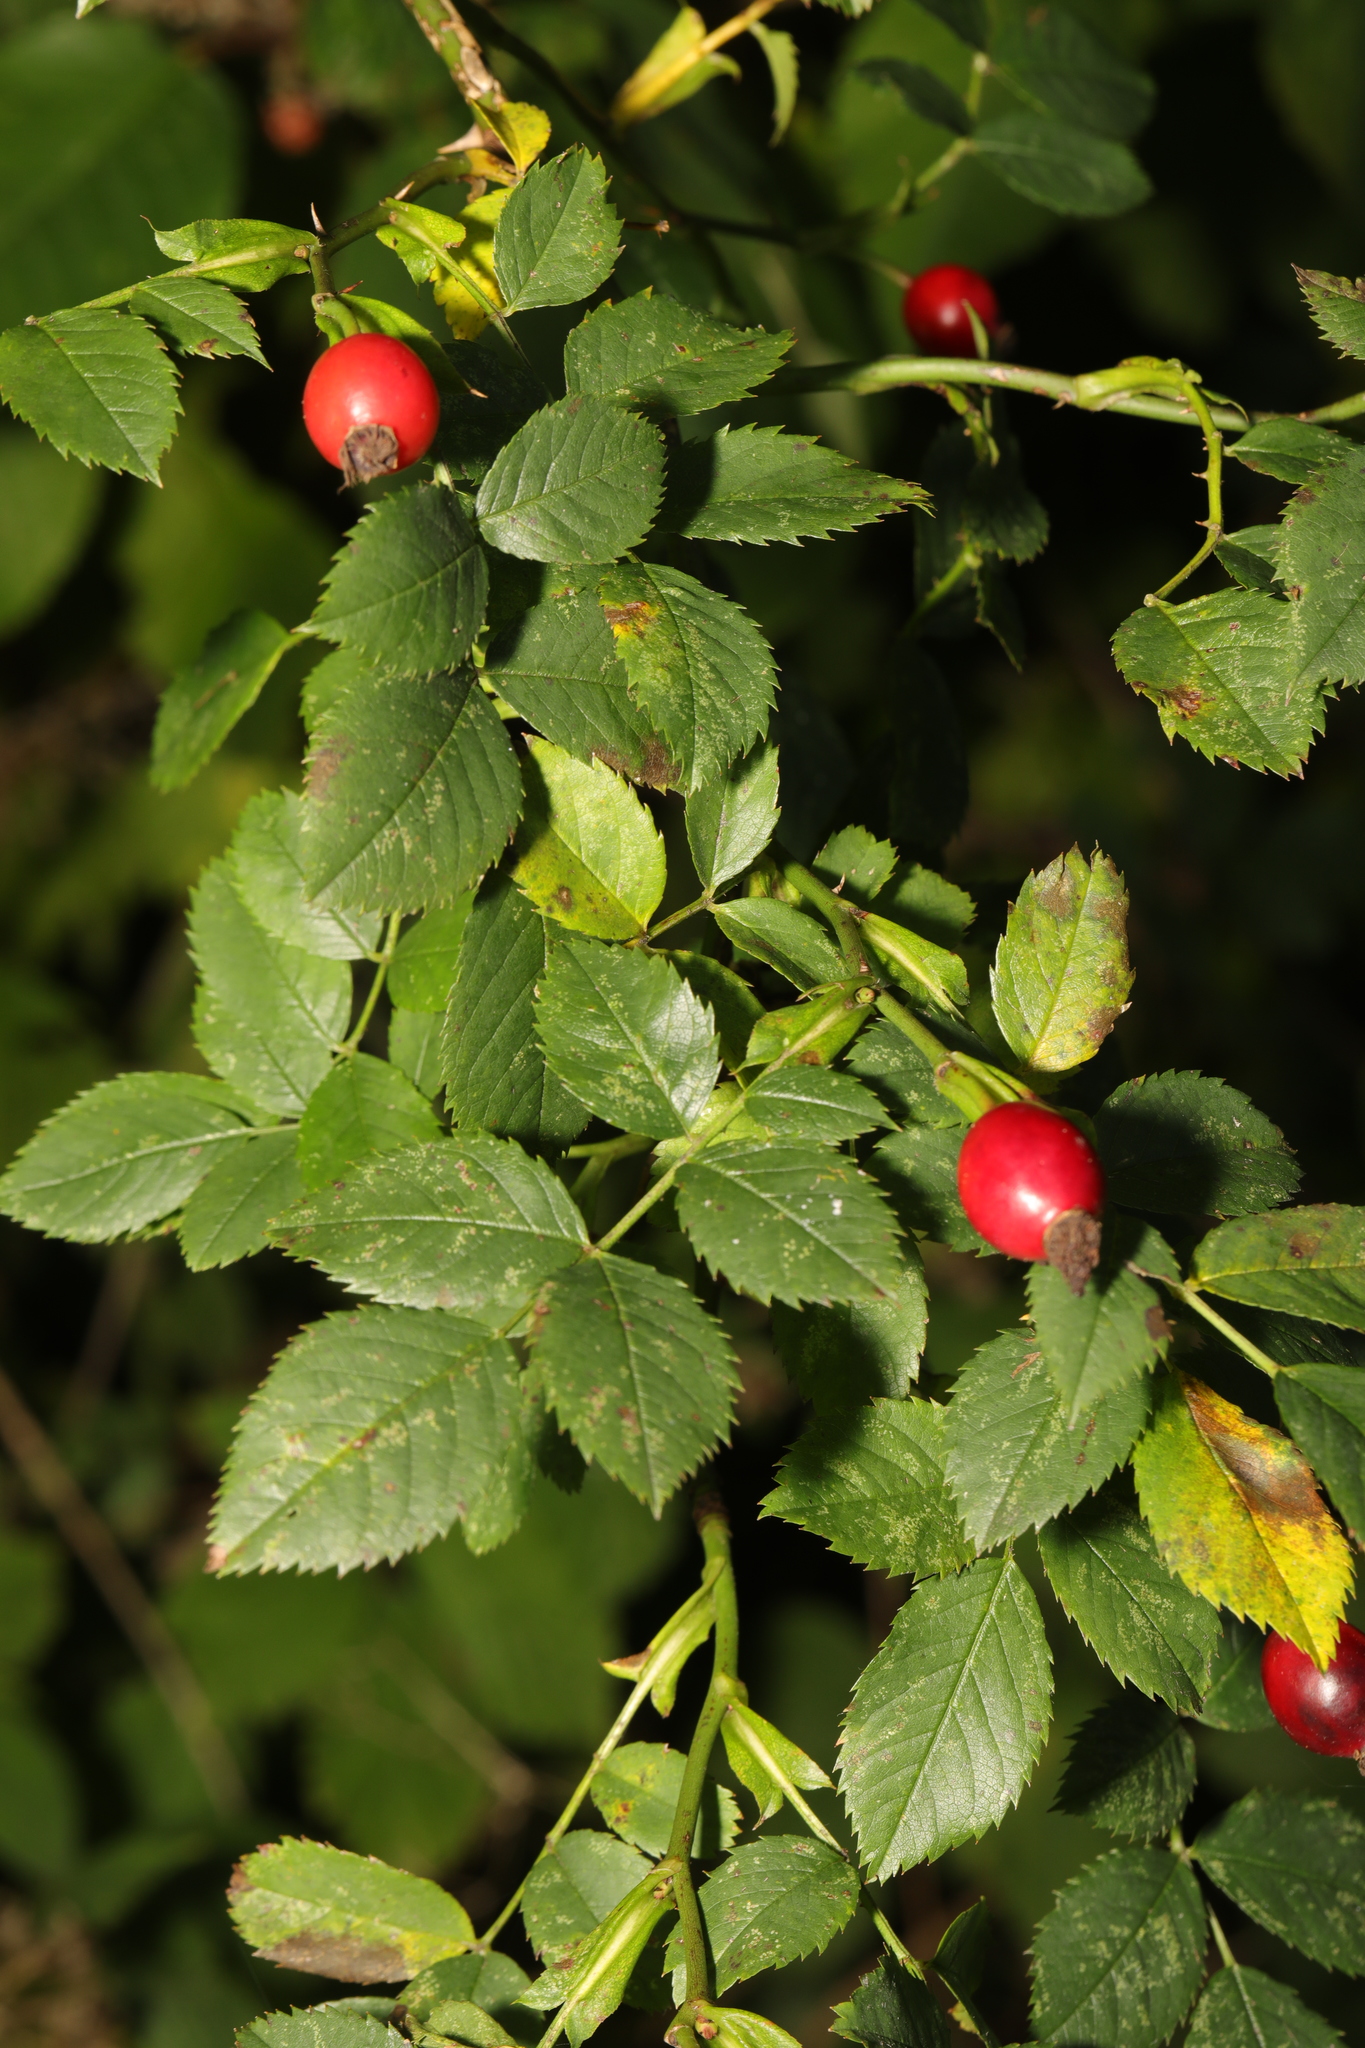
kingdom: Plantae
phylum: Tracheophyta
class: Magnoliopsida
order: Rosales
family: Rosaceae
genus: Rosa
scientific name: Rosa canina
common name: Dog rose
